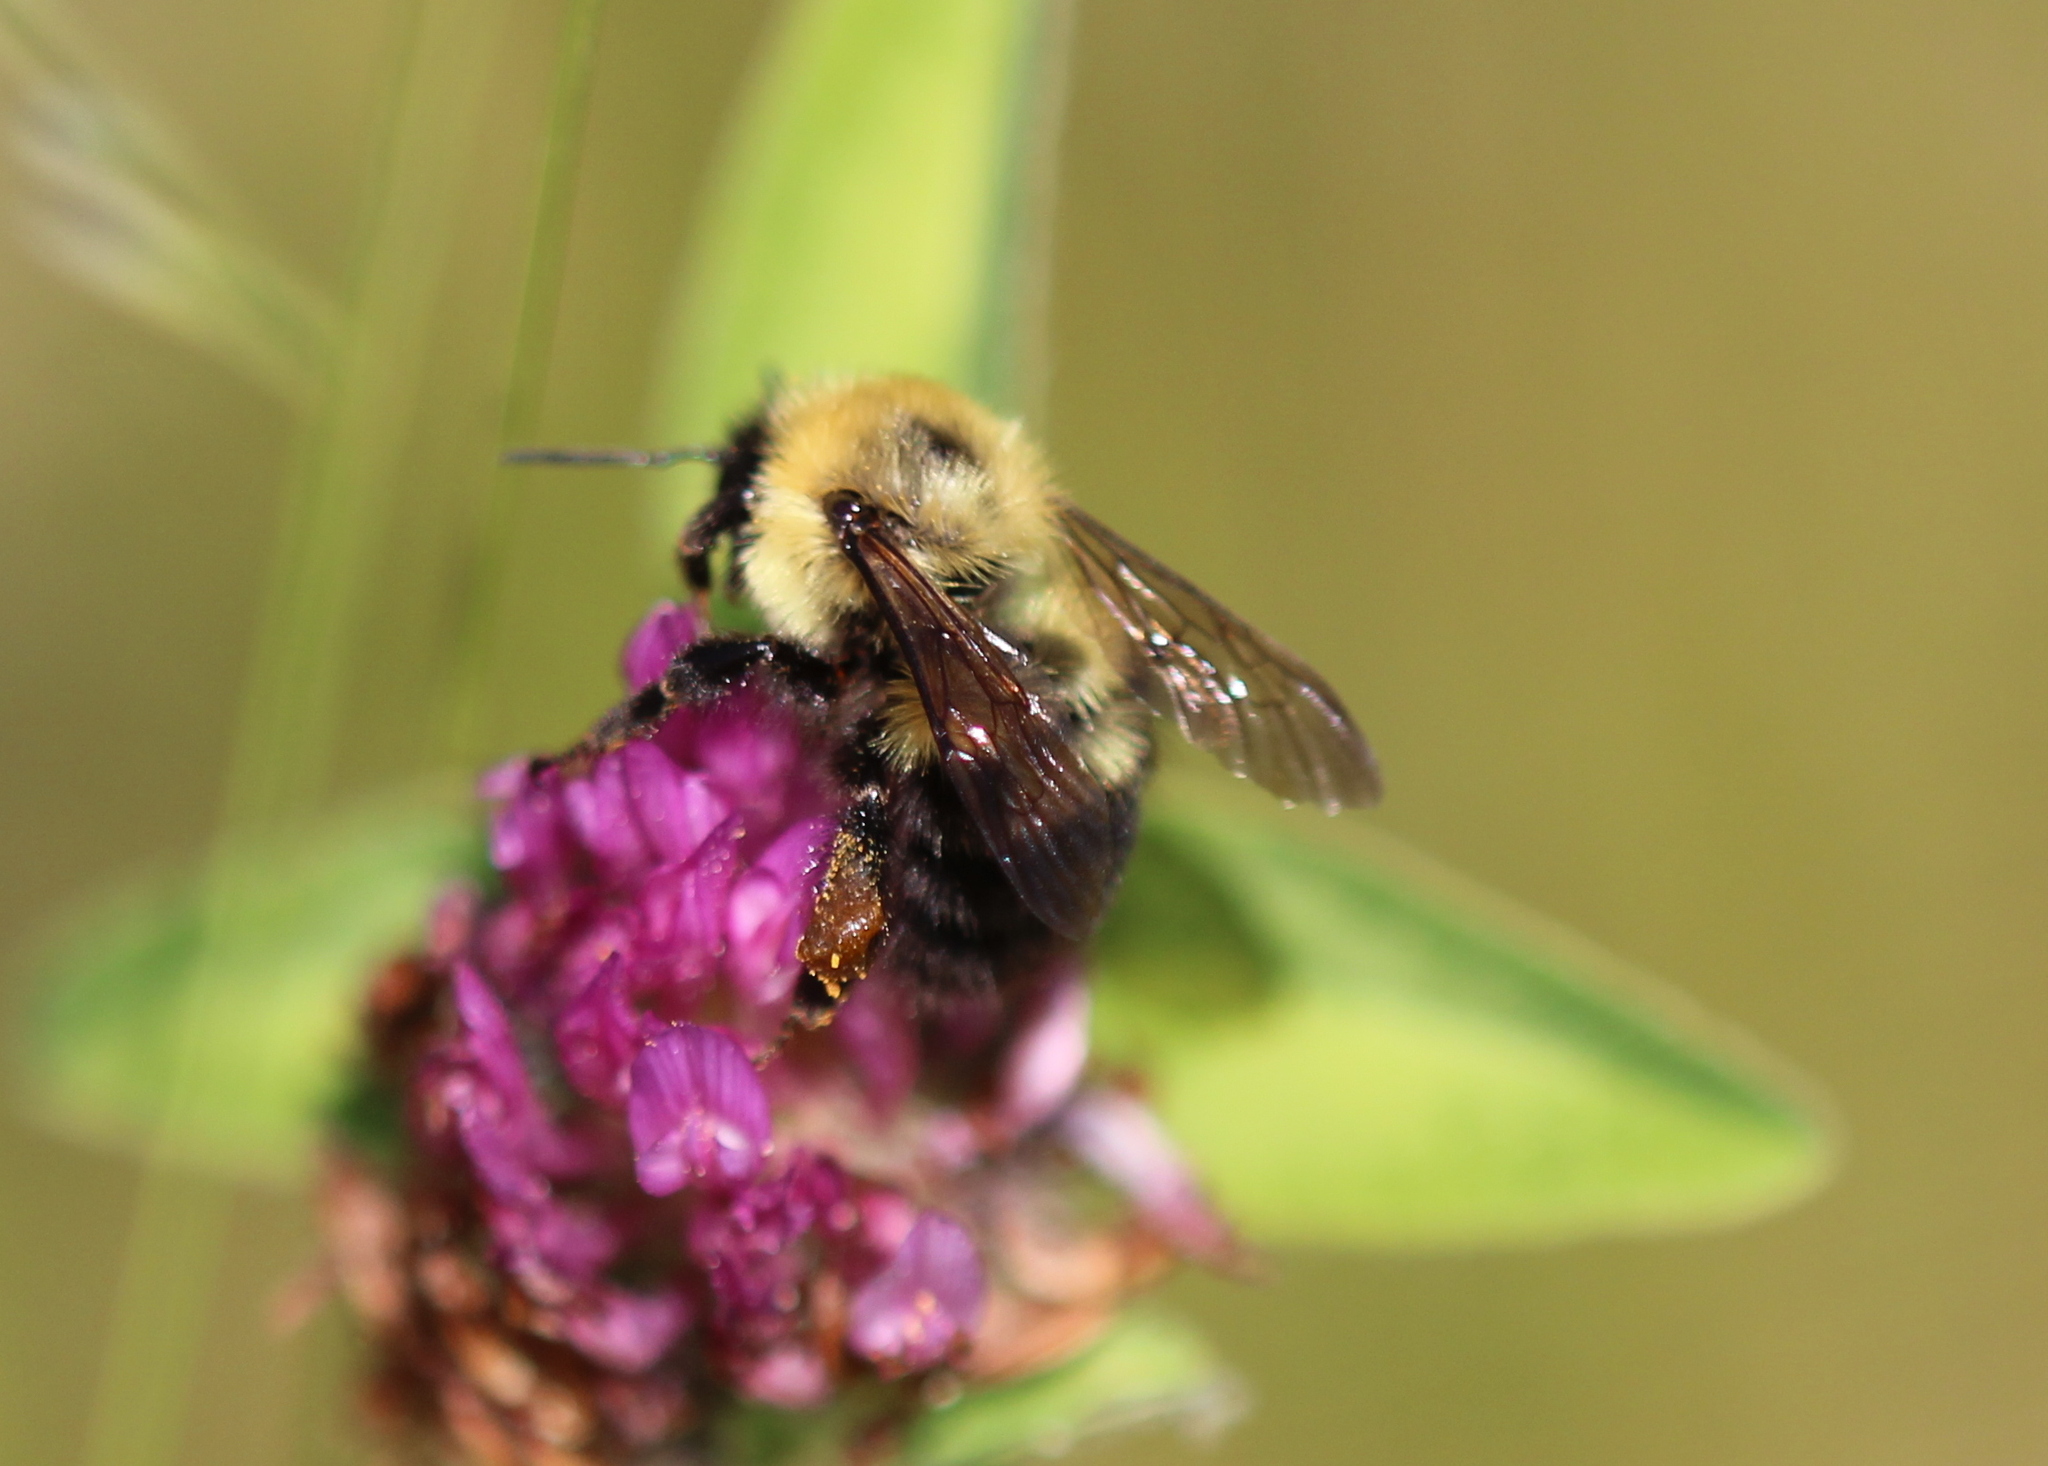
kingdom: Animalia
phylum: Arthropoda
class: Insecta
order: Hymenoptera
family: Apidae
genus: Bombus
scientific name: Bombus bimaculatus
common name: Two-spotted bumble bee
